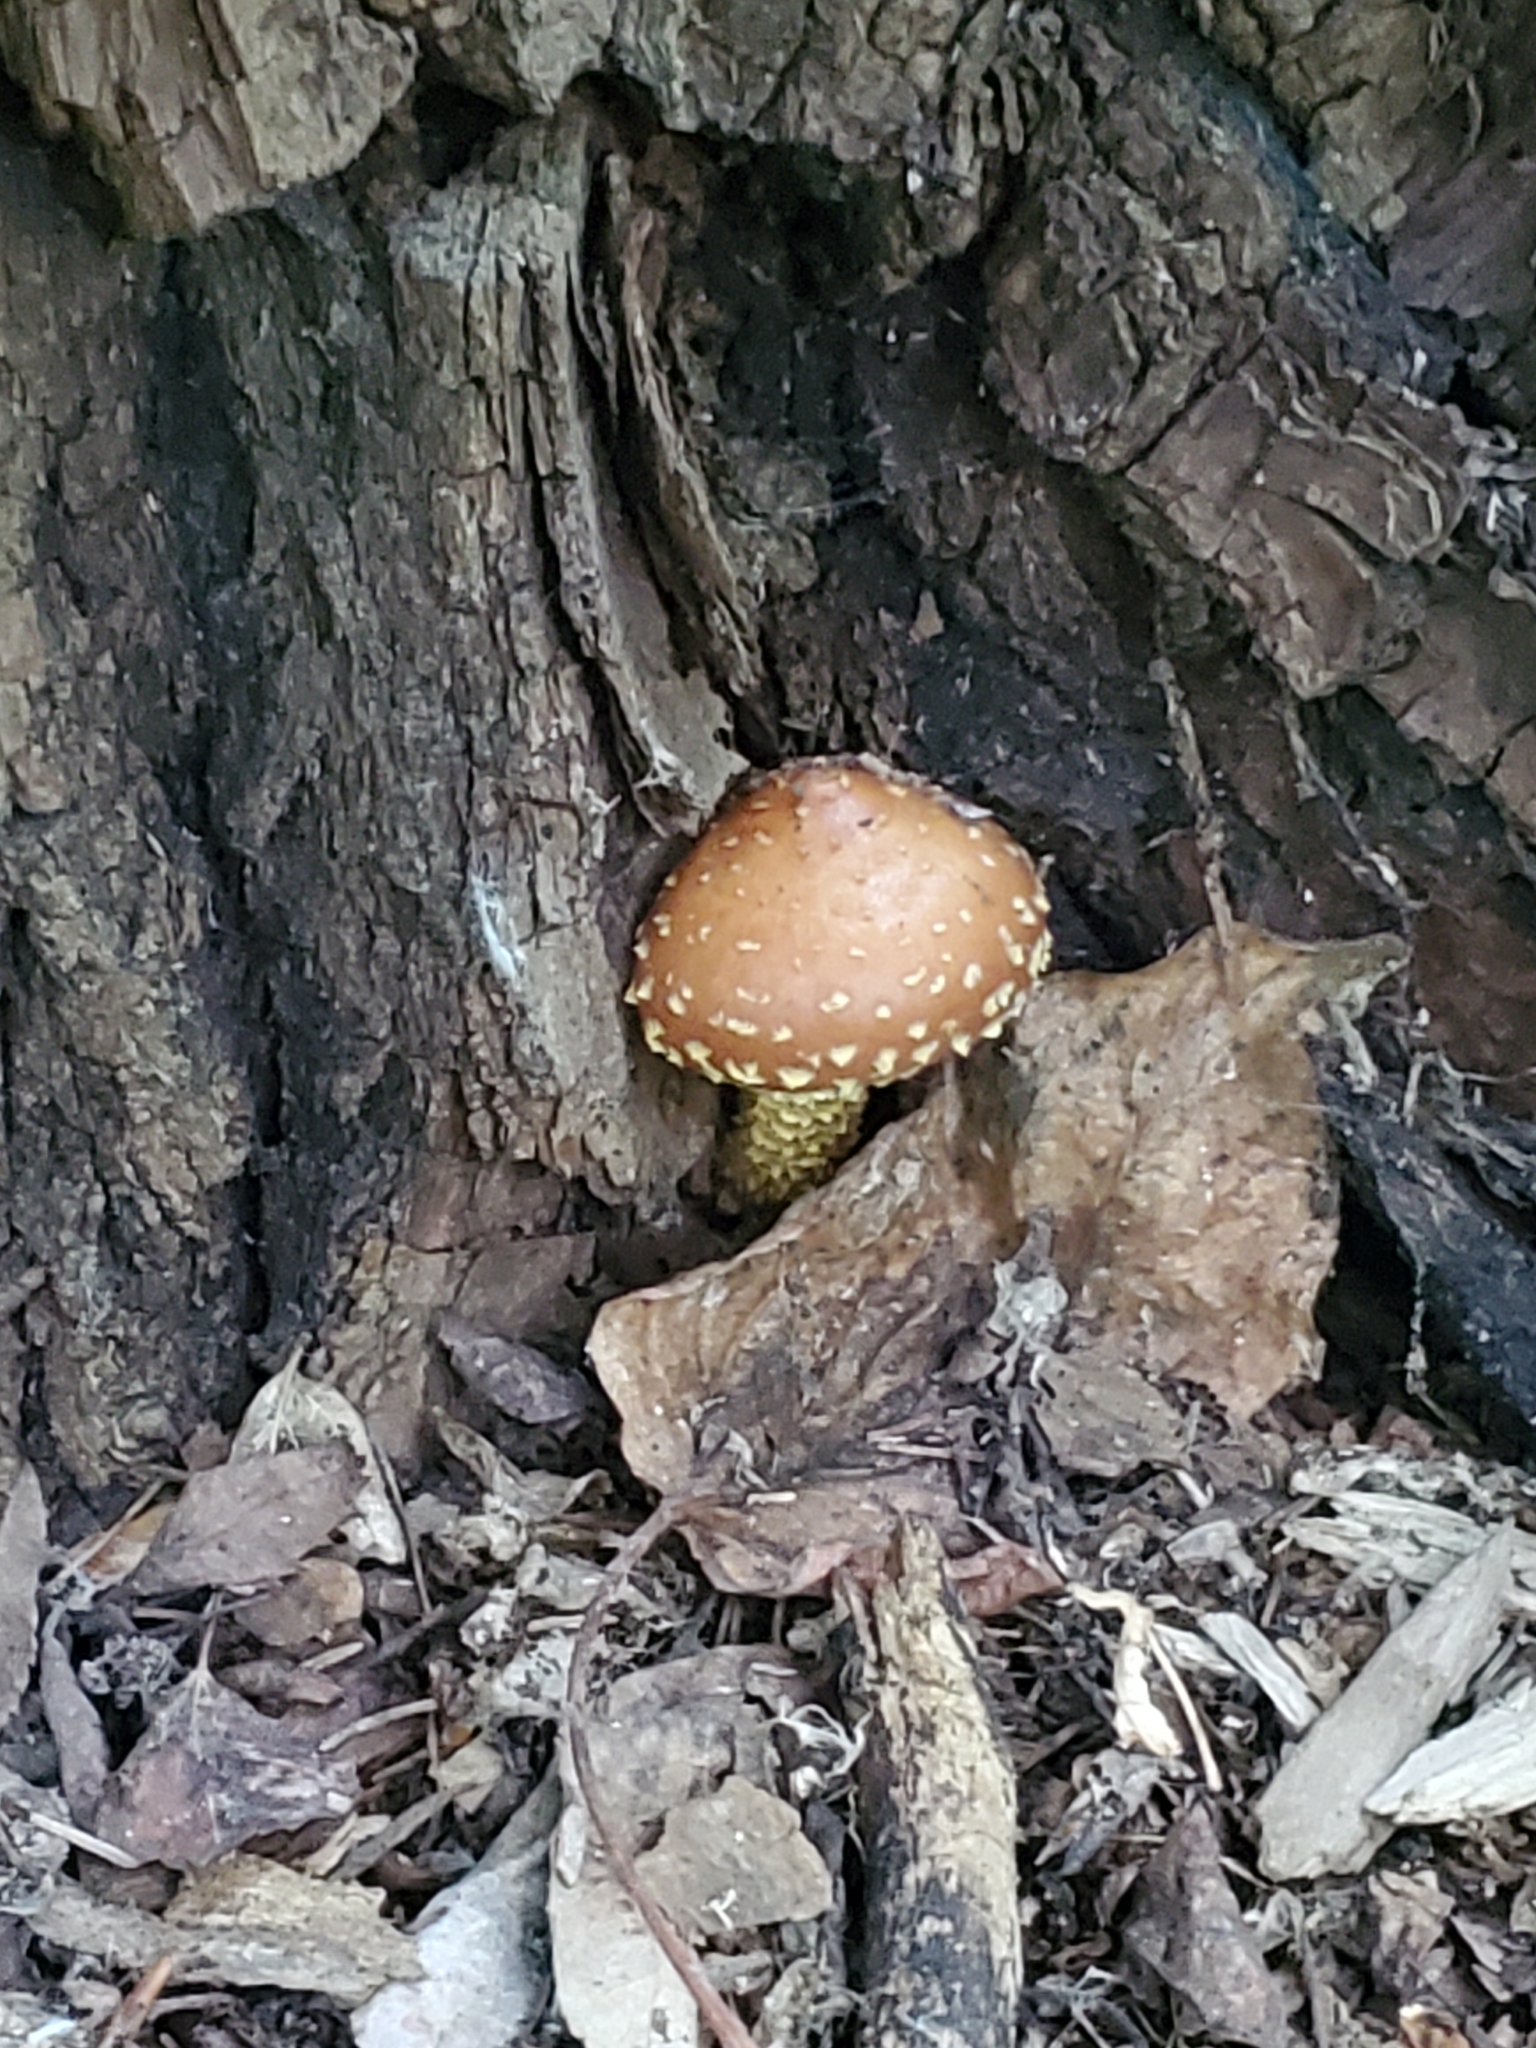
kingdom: Fungi
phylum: Basidiomycota
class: Agaricomycetes
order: Agaricales
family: Tubariaceae
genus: Hemistropharia
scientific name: Hemistropharia albocrenulata
